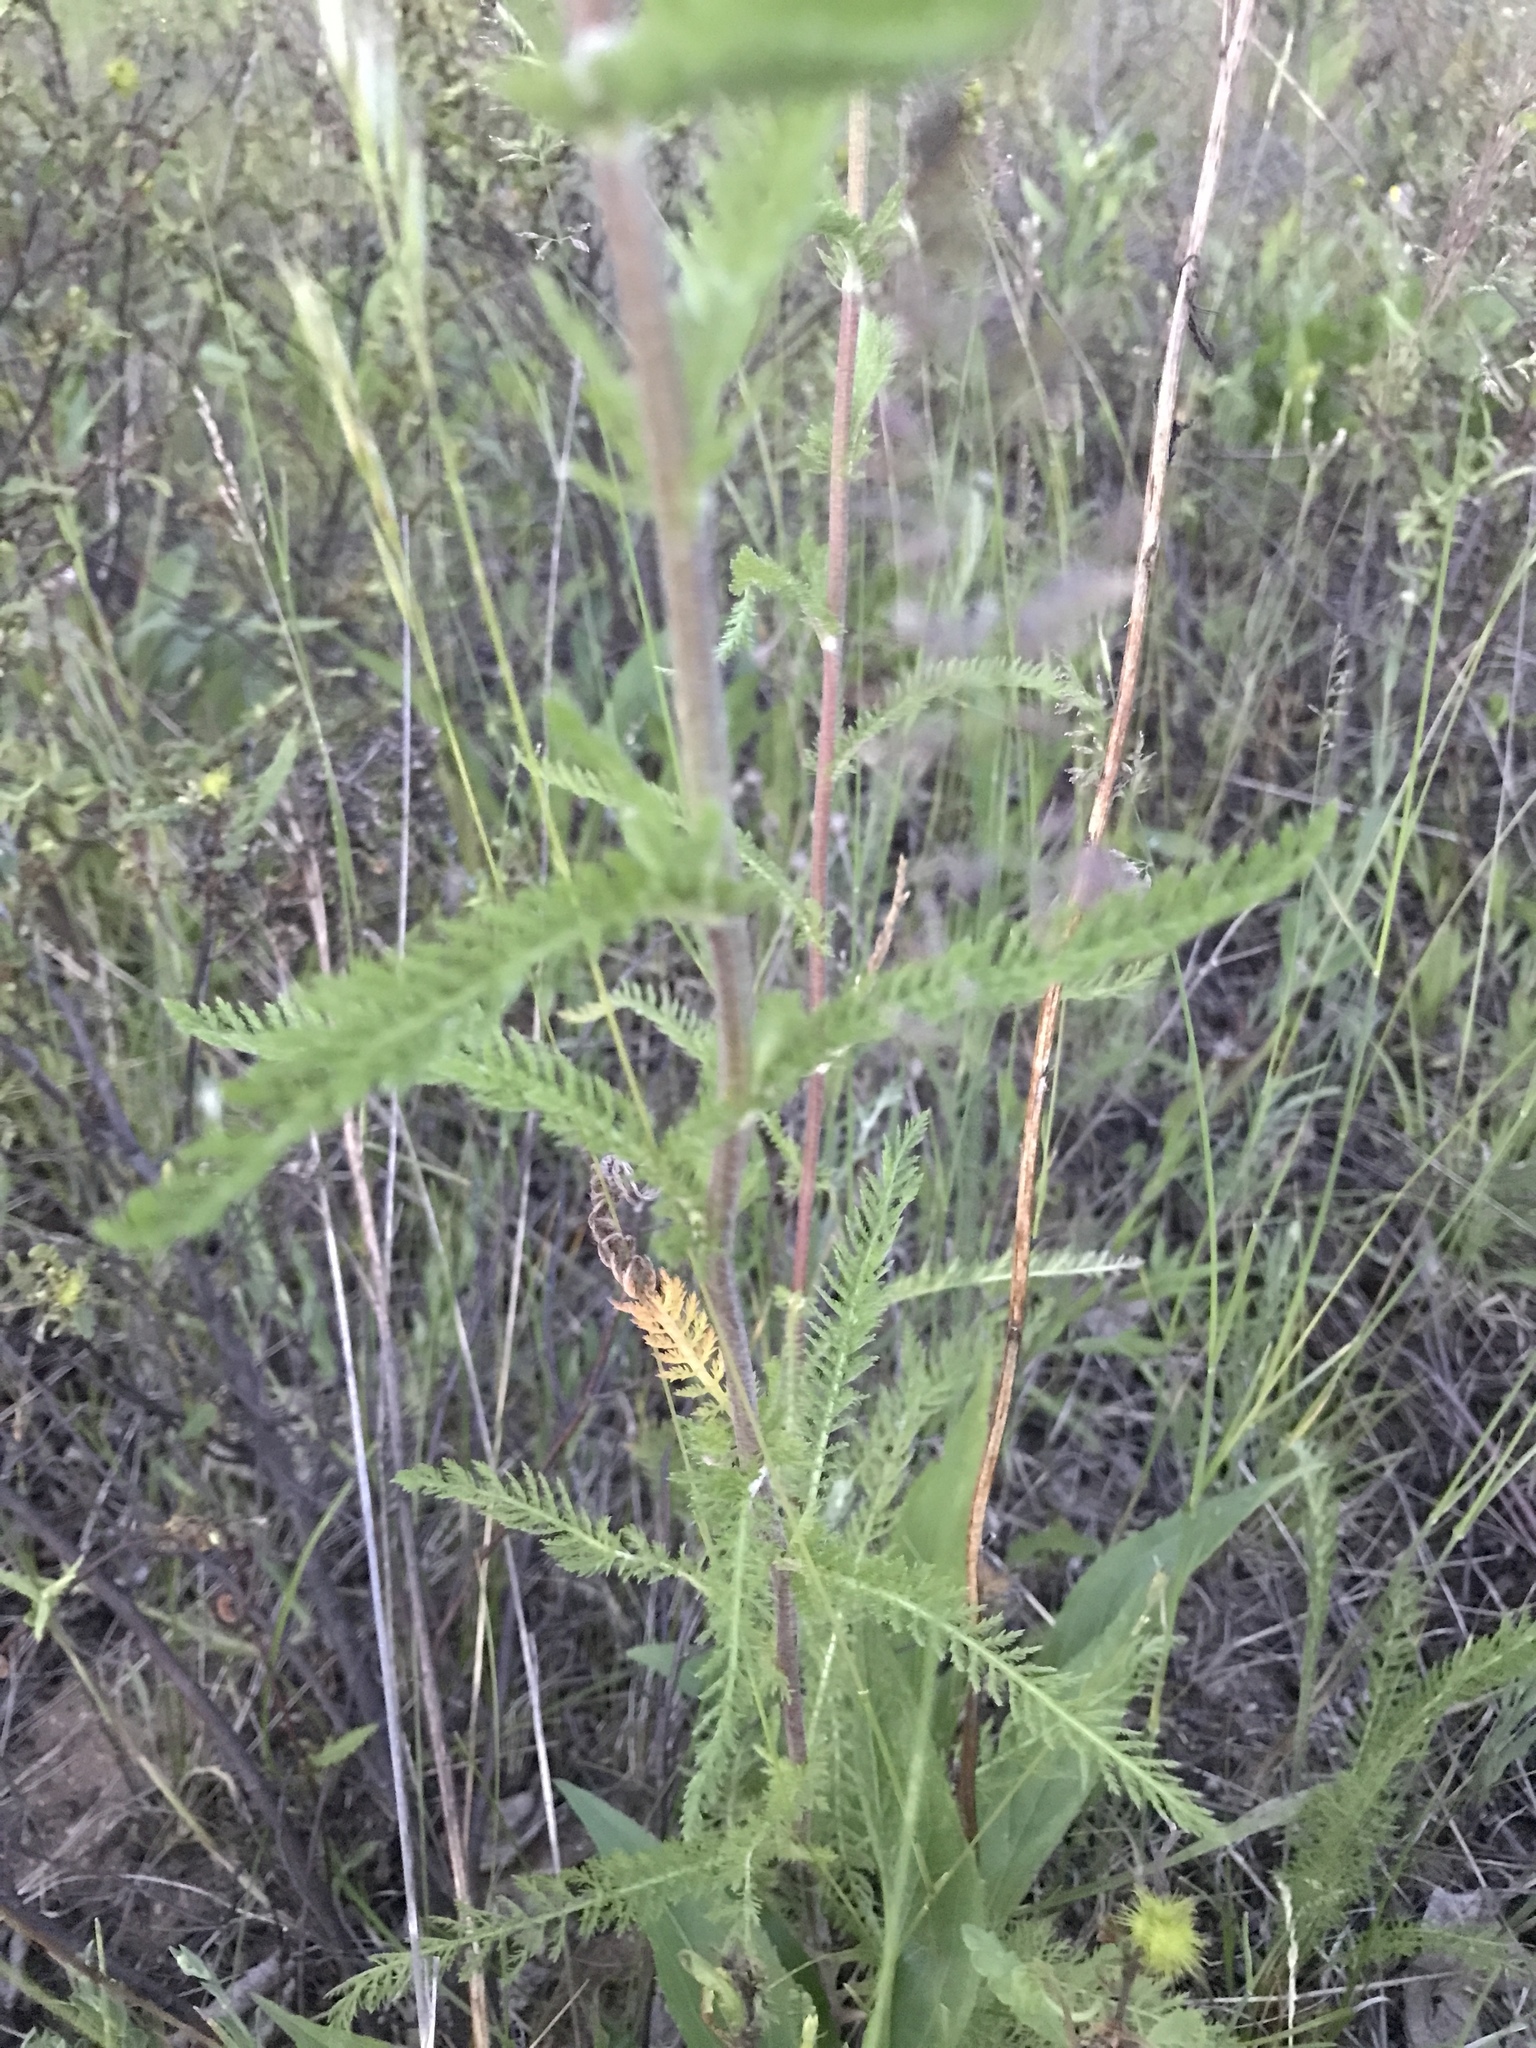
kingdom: Plantae
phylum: Tracheophyta
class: Magnoliopsida
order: Asterales
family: Asteraceae
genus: Achillea
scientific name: Achillea millefolium
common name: Yarrow
